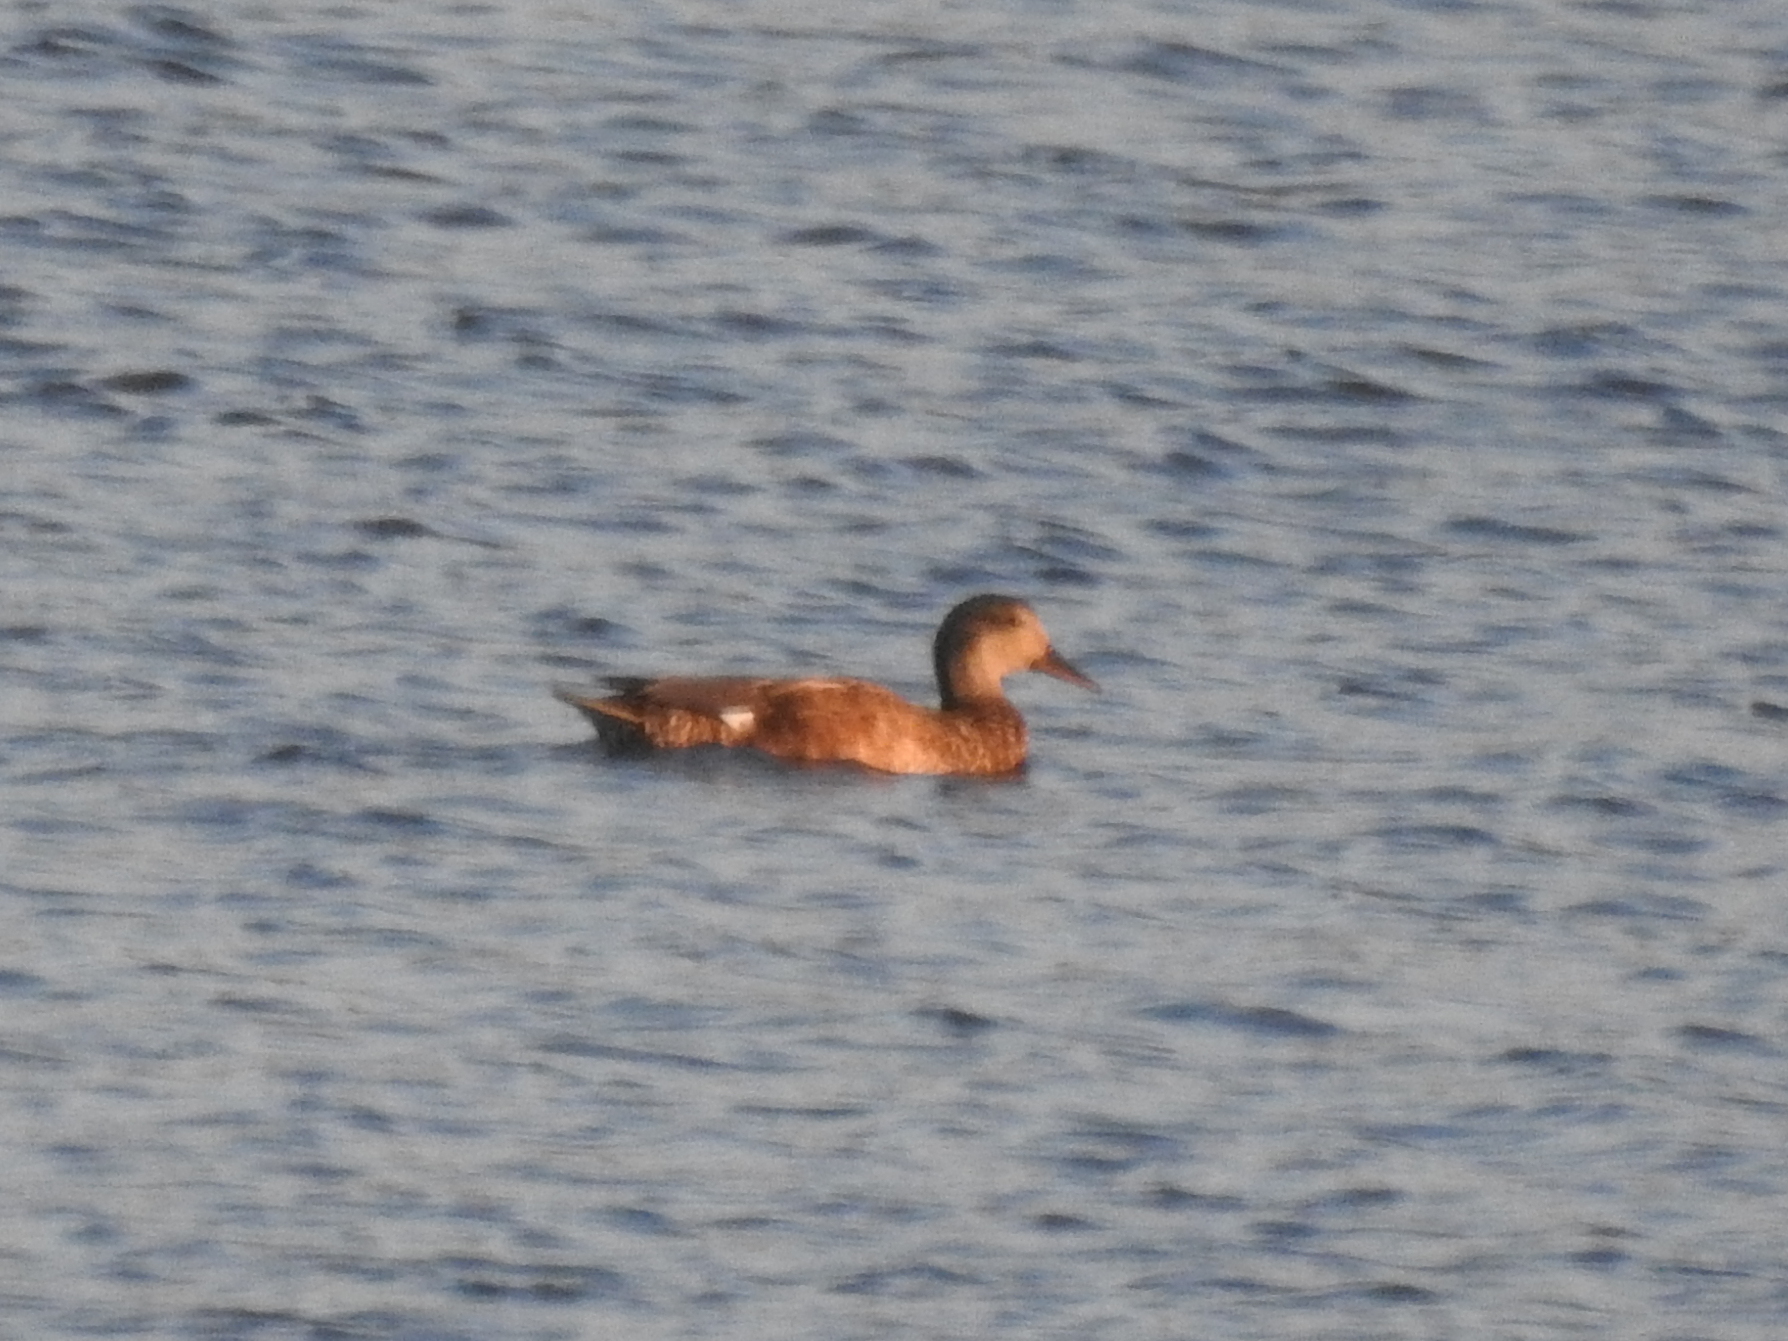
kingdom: Animalia
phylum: Chordata
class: Aves
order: Anseriformes
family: Anatidae
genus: Mareca
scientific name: Mareca strepera
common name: Gadwall
